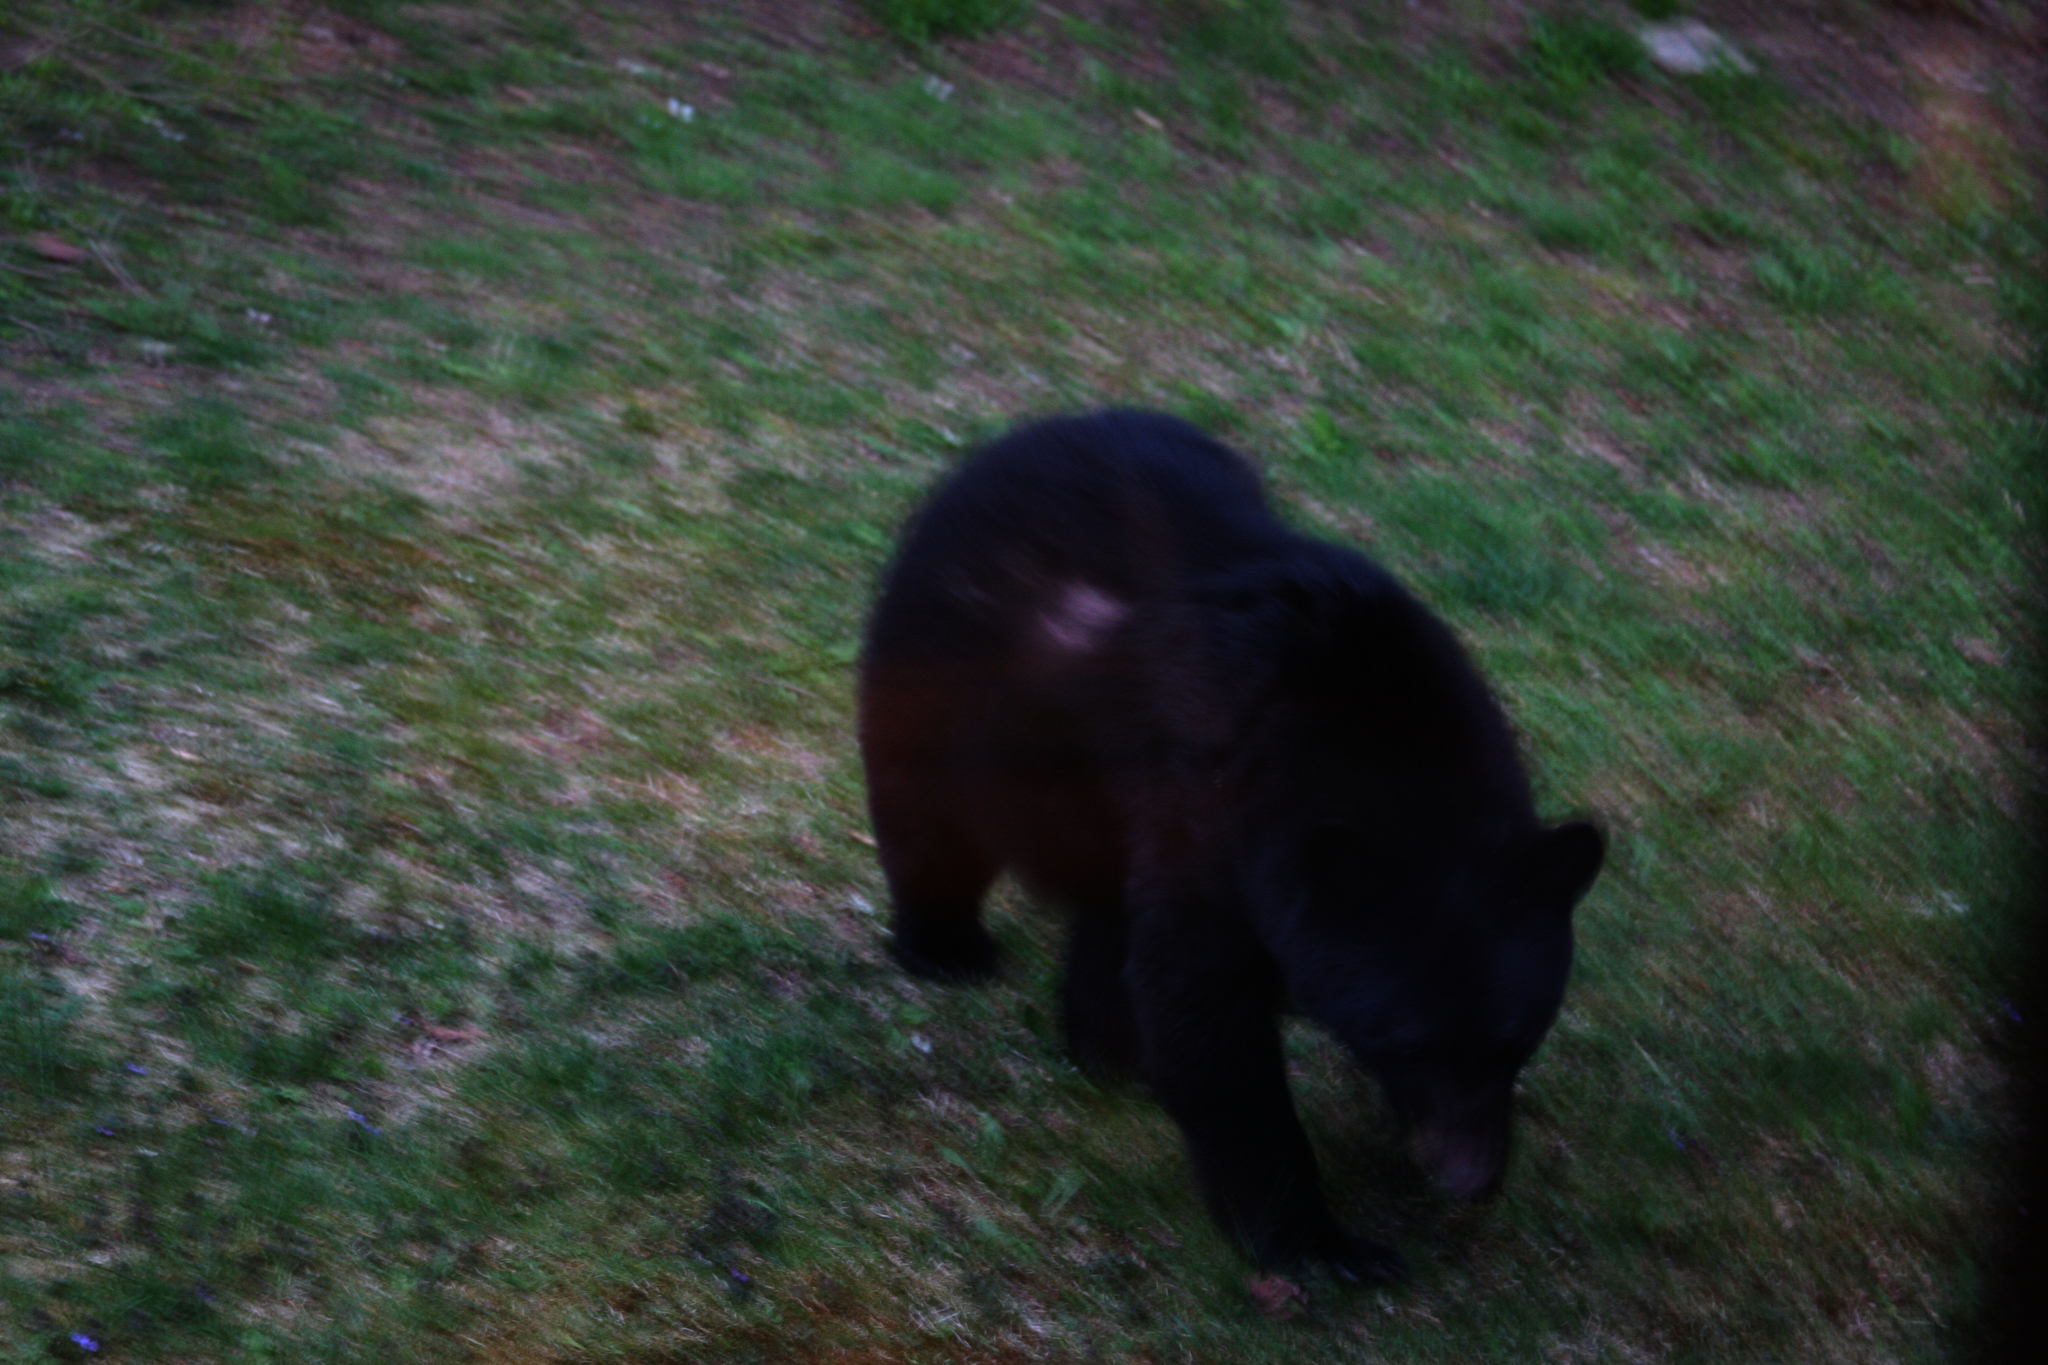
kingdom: Animalia
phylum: Chordata
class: Mammalia
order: Carnivora
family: Ursidae
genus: Ursus
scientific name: Ursus americanus
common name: American black bear
